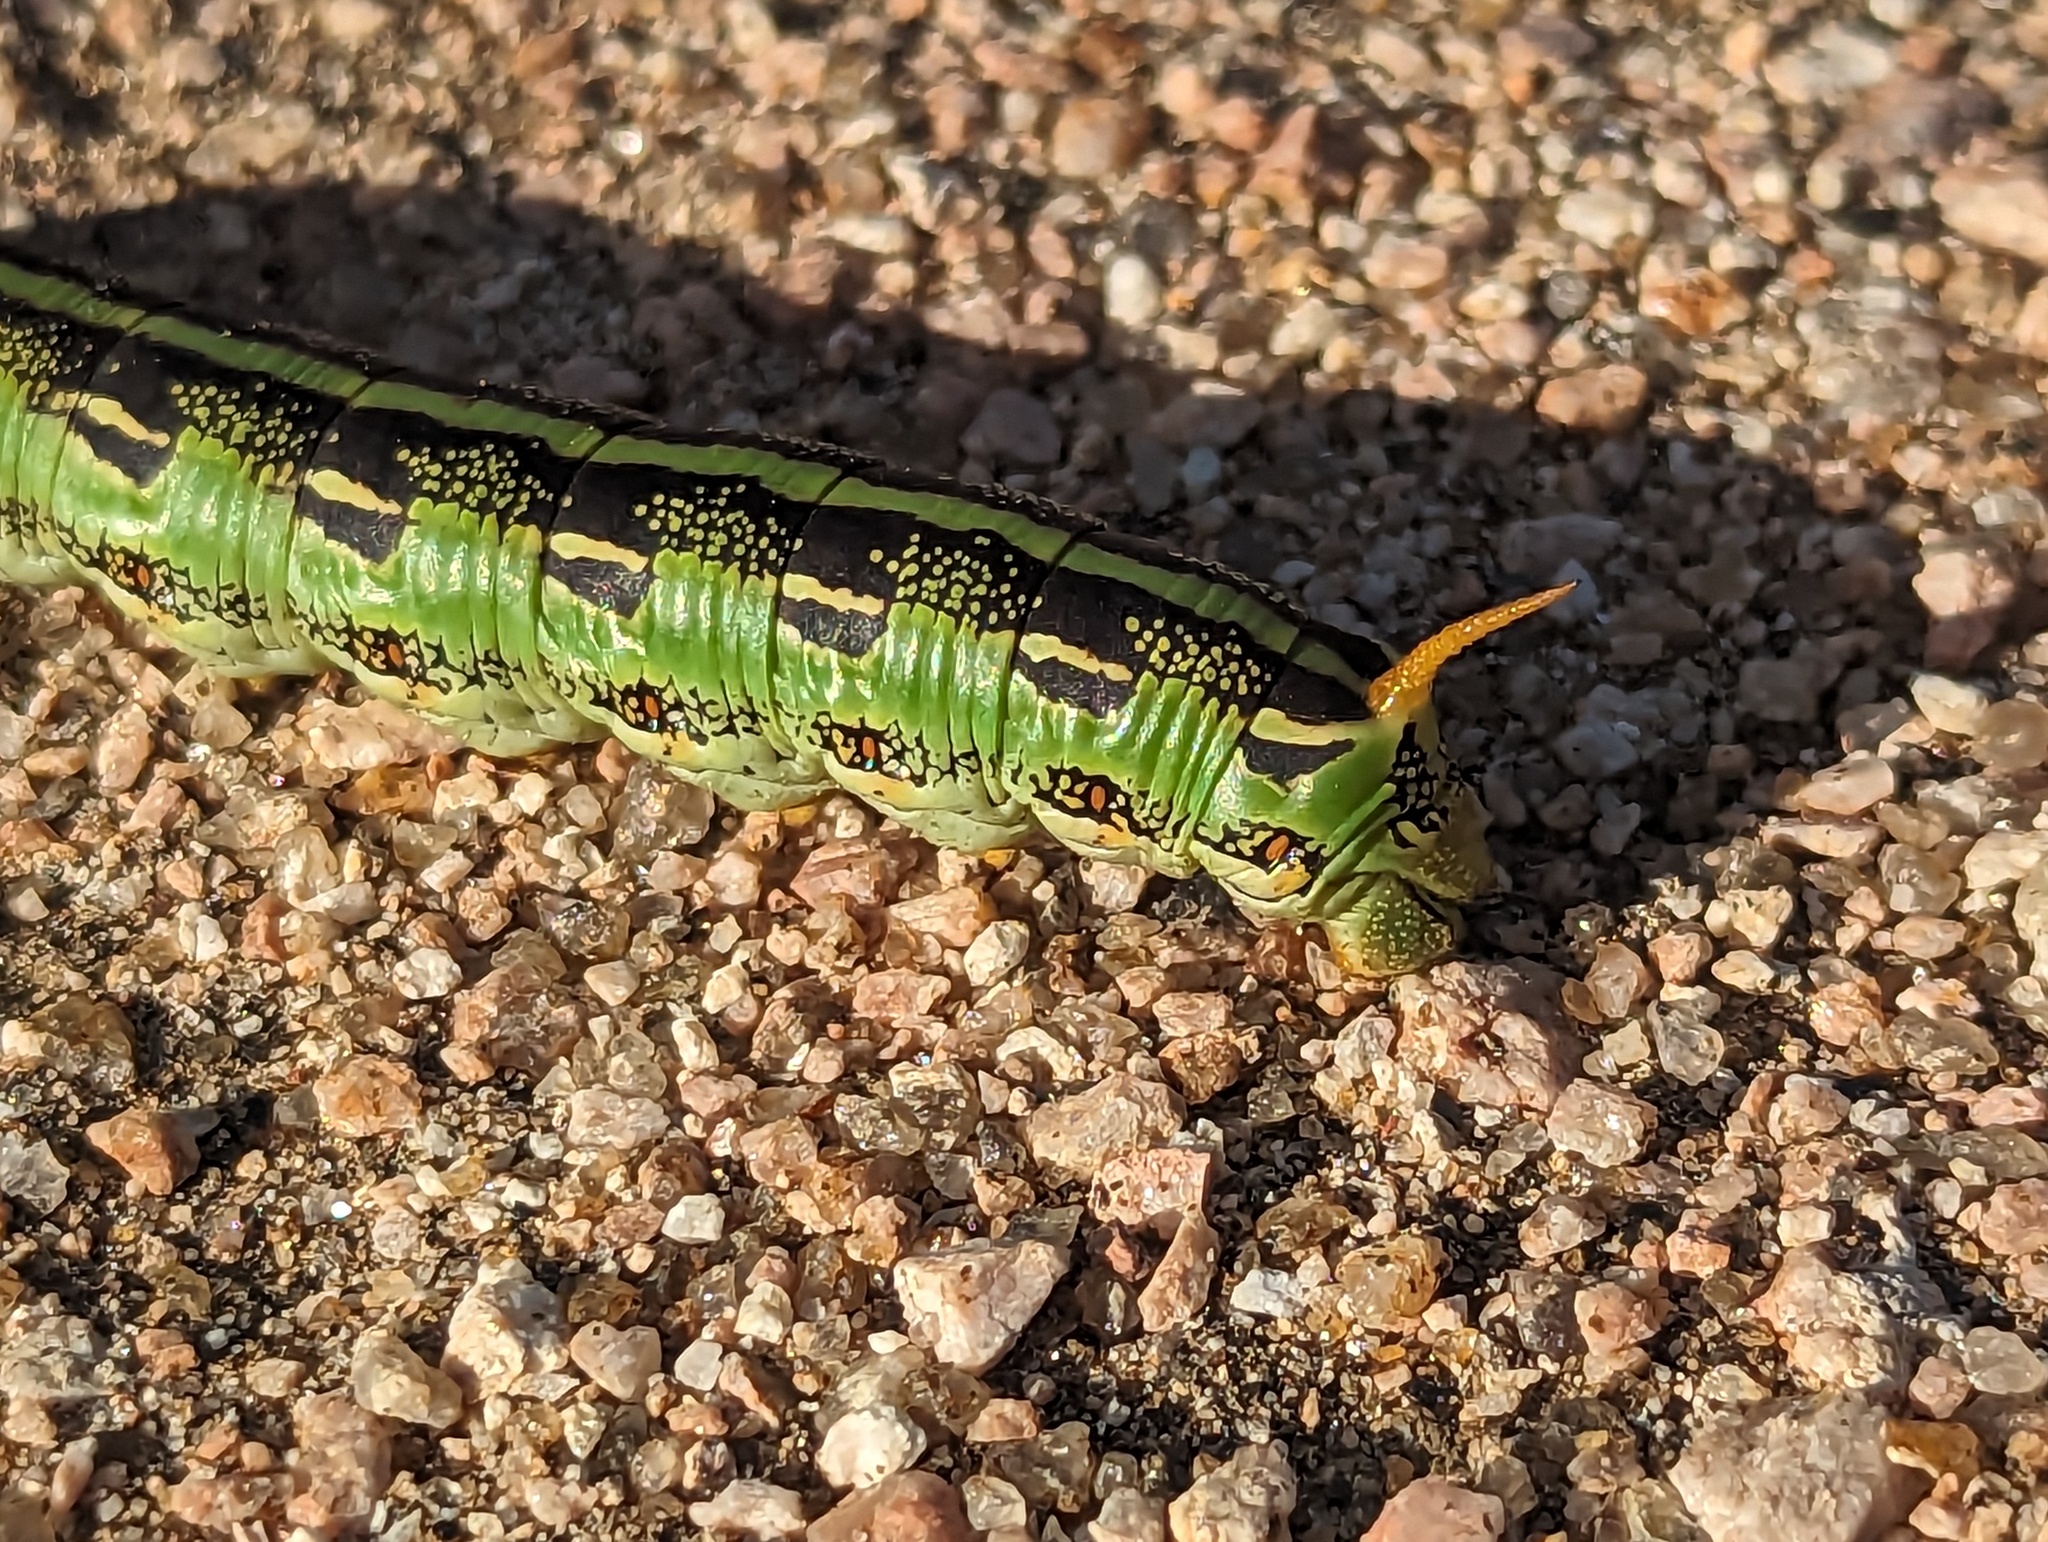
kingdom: Animalia
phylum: Arthropoda
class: Insecta
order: Lepidoptera
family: Sphingidae
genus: Hyles
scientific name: Hyles lineata
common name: White-lined sphinx
